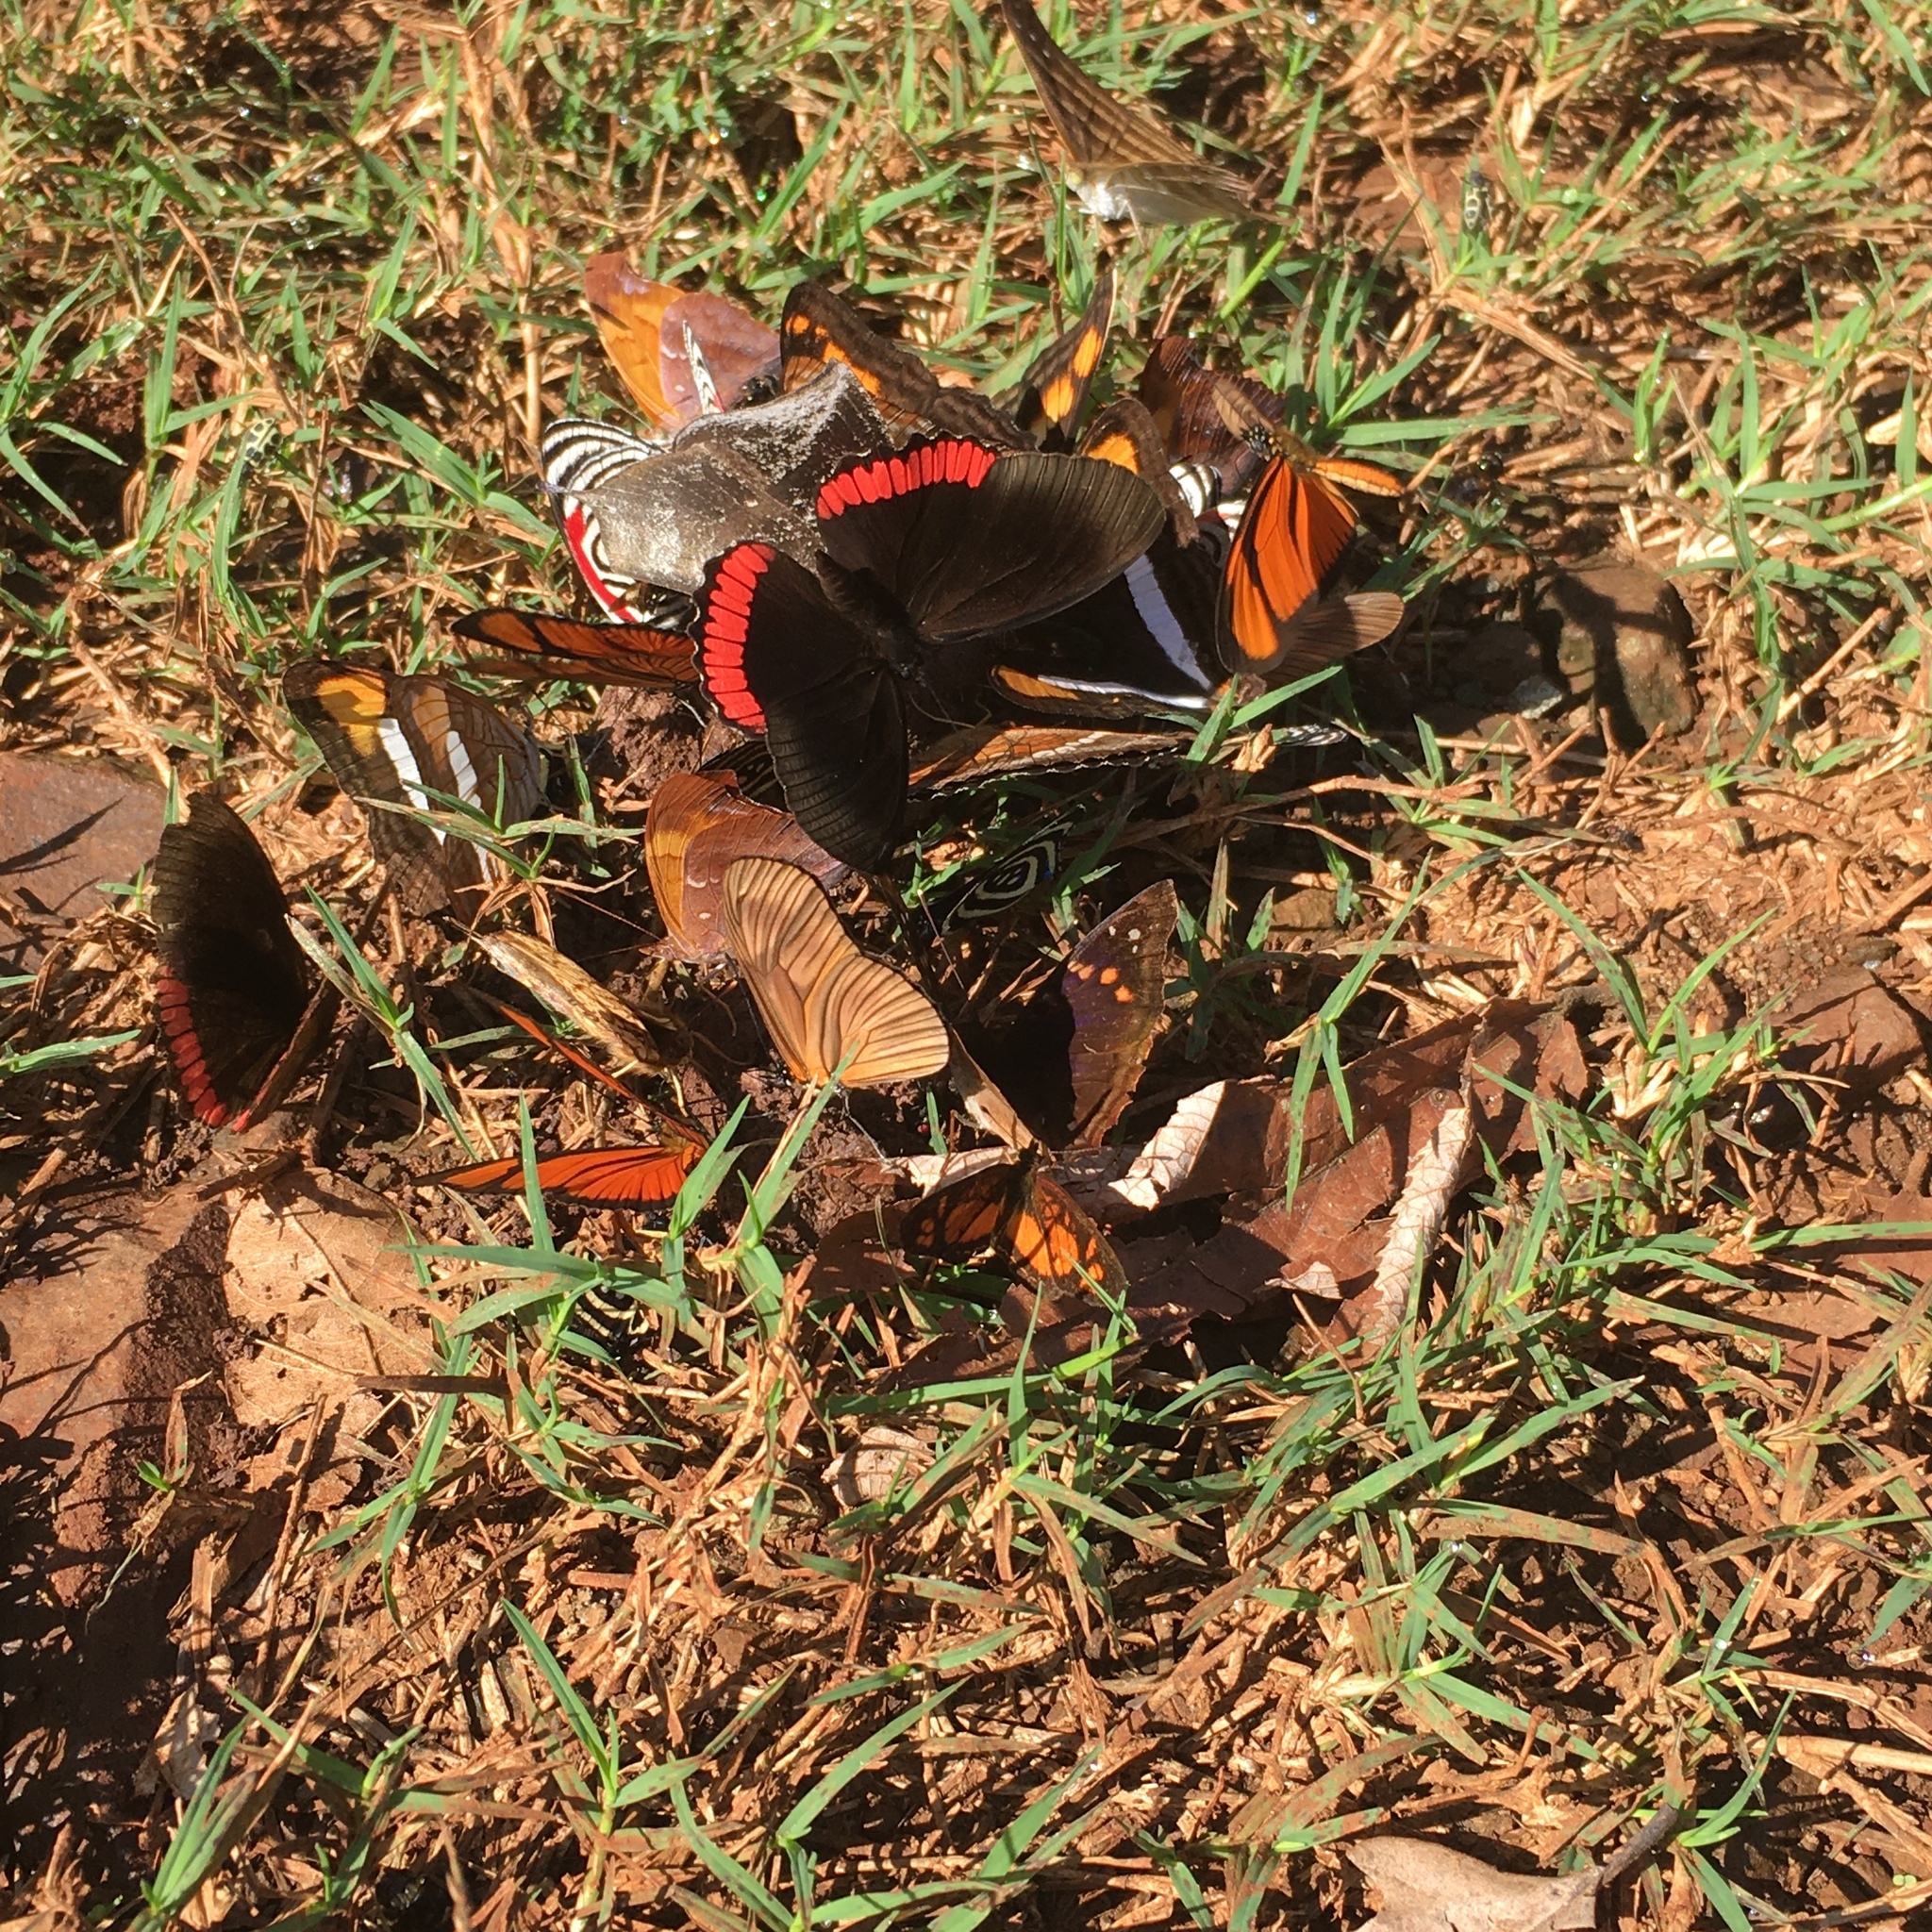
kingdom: Animalia
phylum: Arthropoda
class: Insecta
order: Lepidoptera
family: Nymphalidae
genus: Temenis
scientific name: Temenis laothoe
